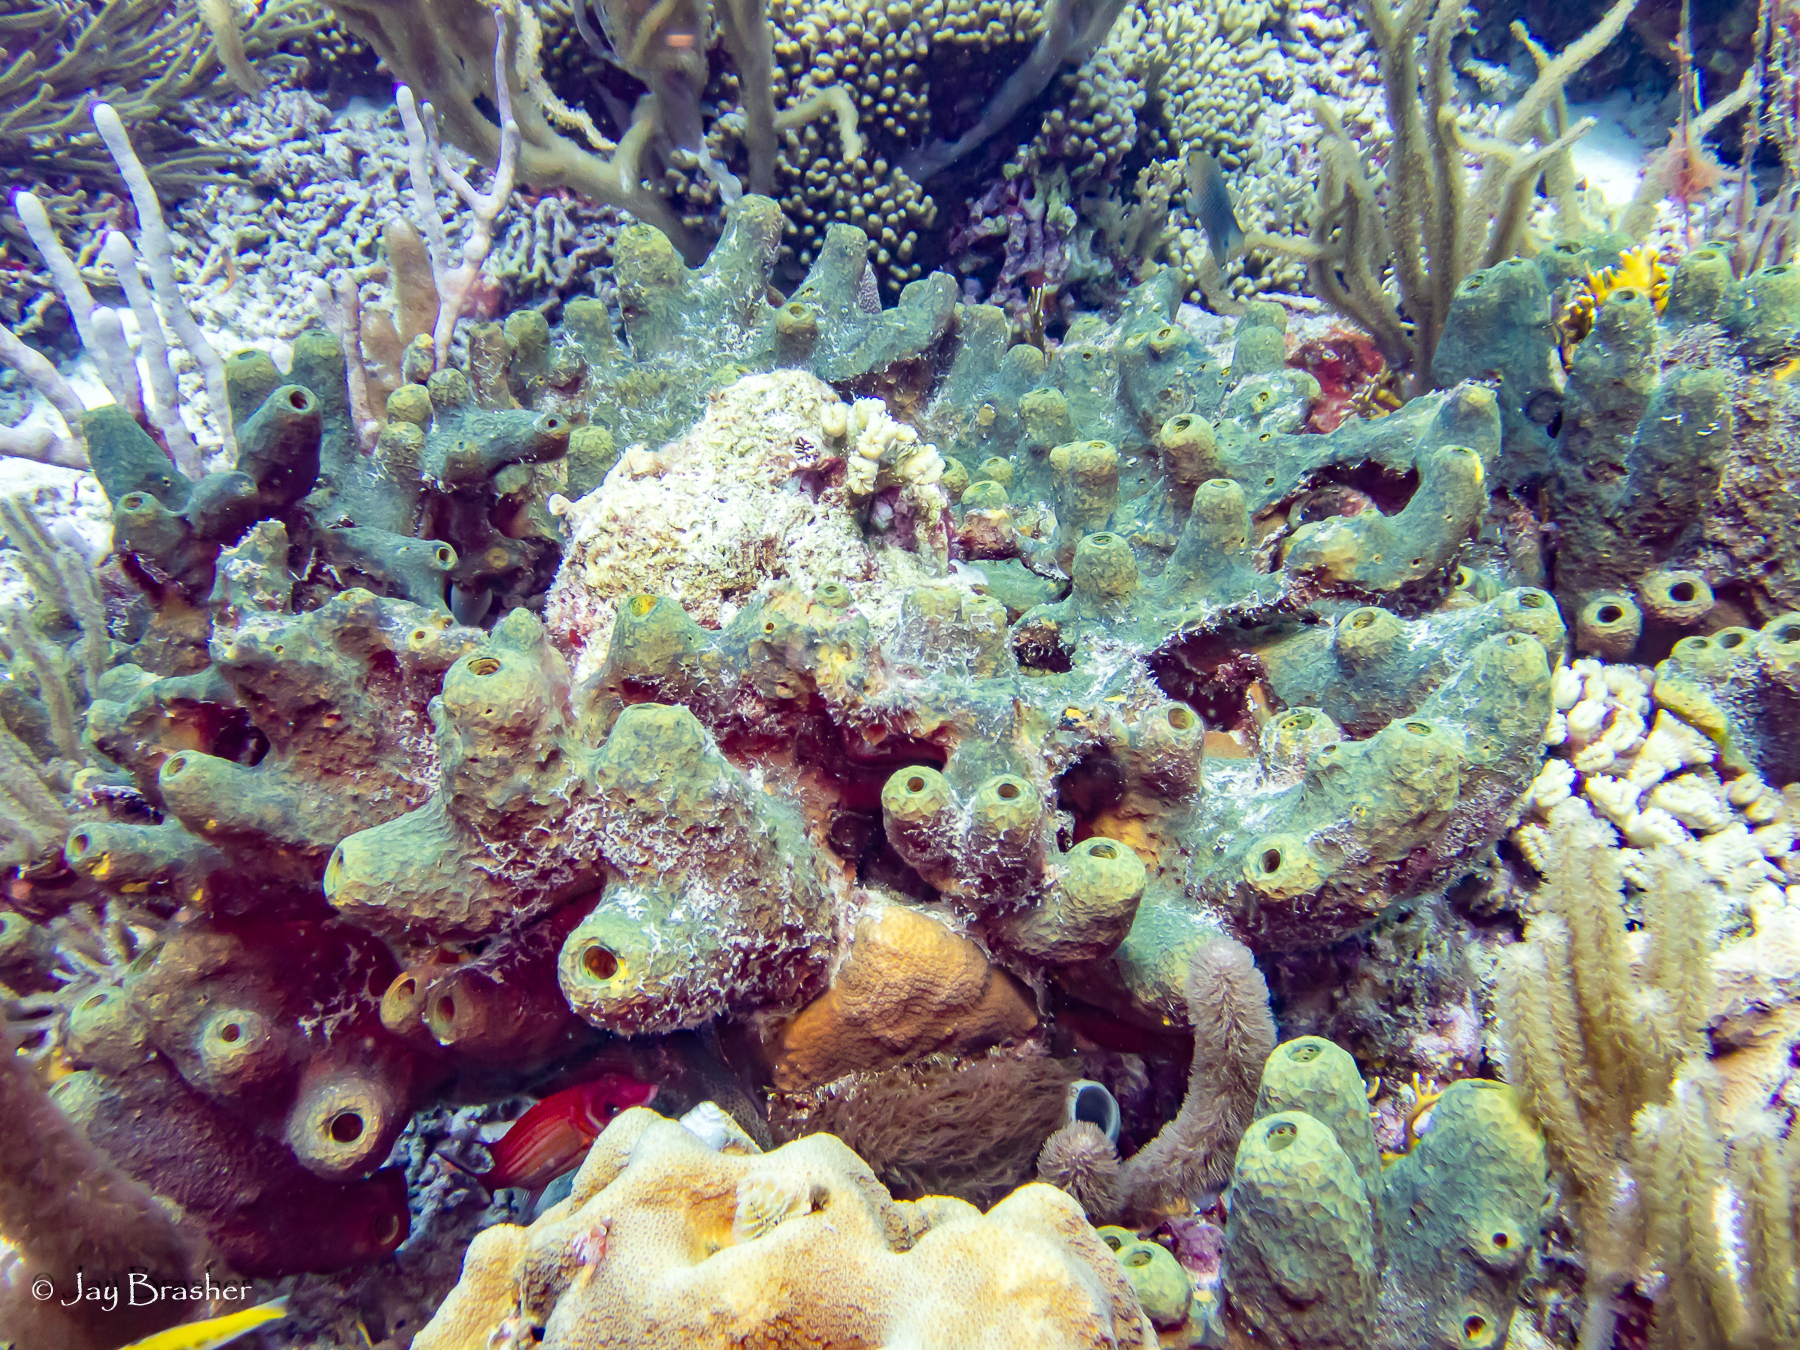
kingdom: Animalia
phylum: Porifera
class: Demospongiae
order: Verongiida
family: Aplysinidae
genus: Verongula
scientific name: Verongula rigida
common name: Pitted sponge
